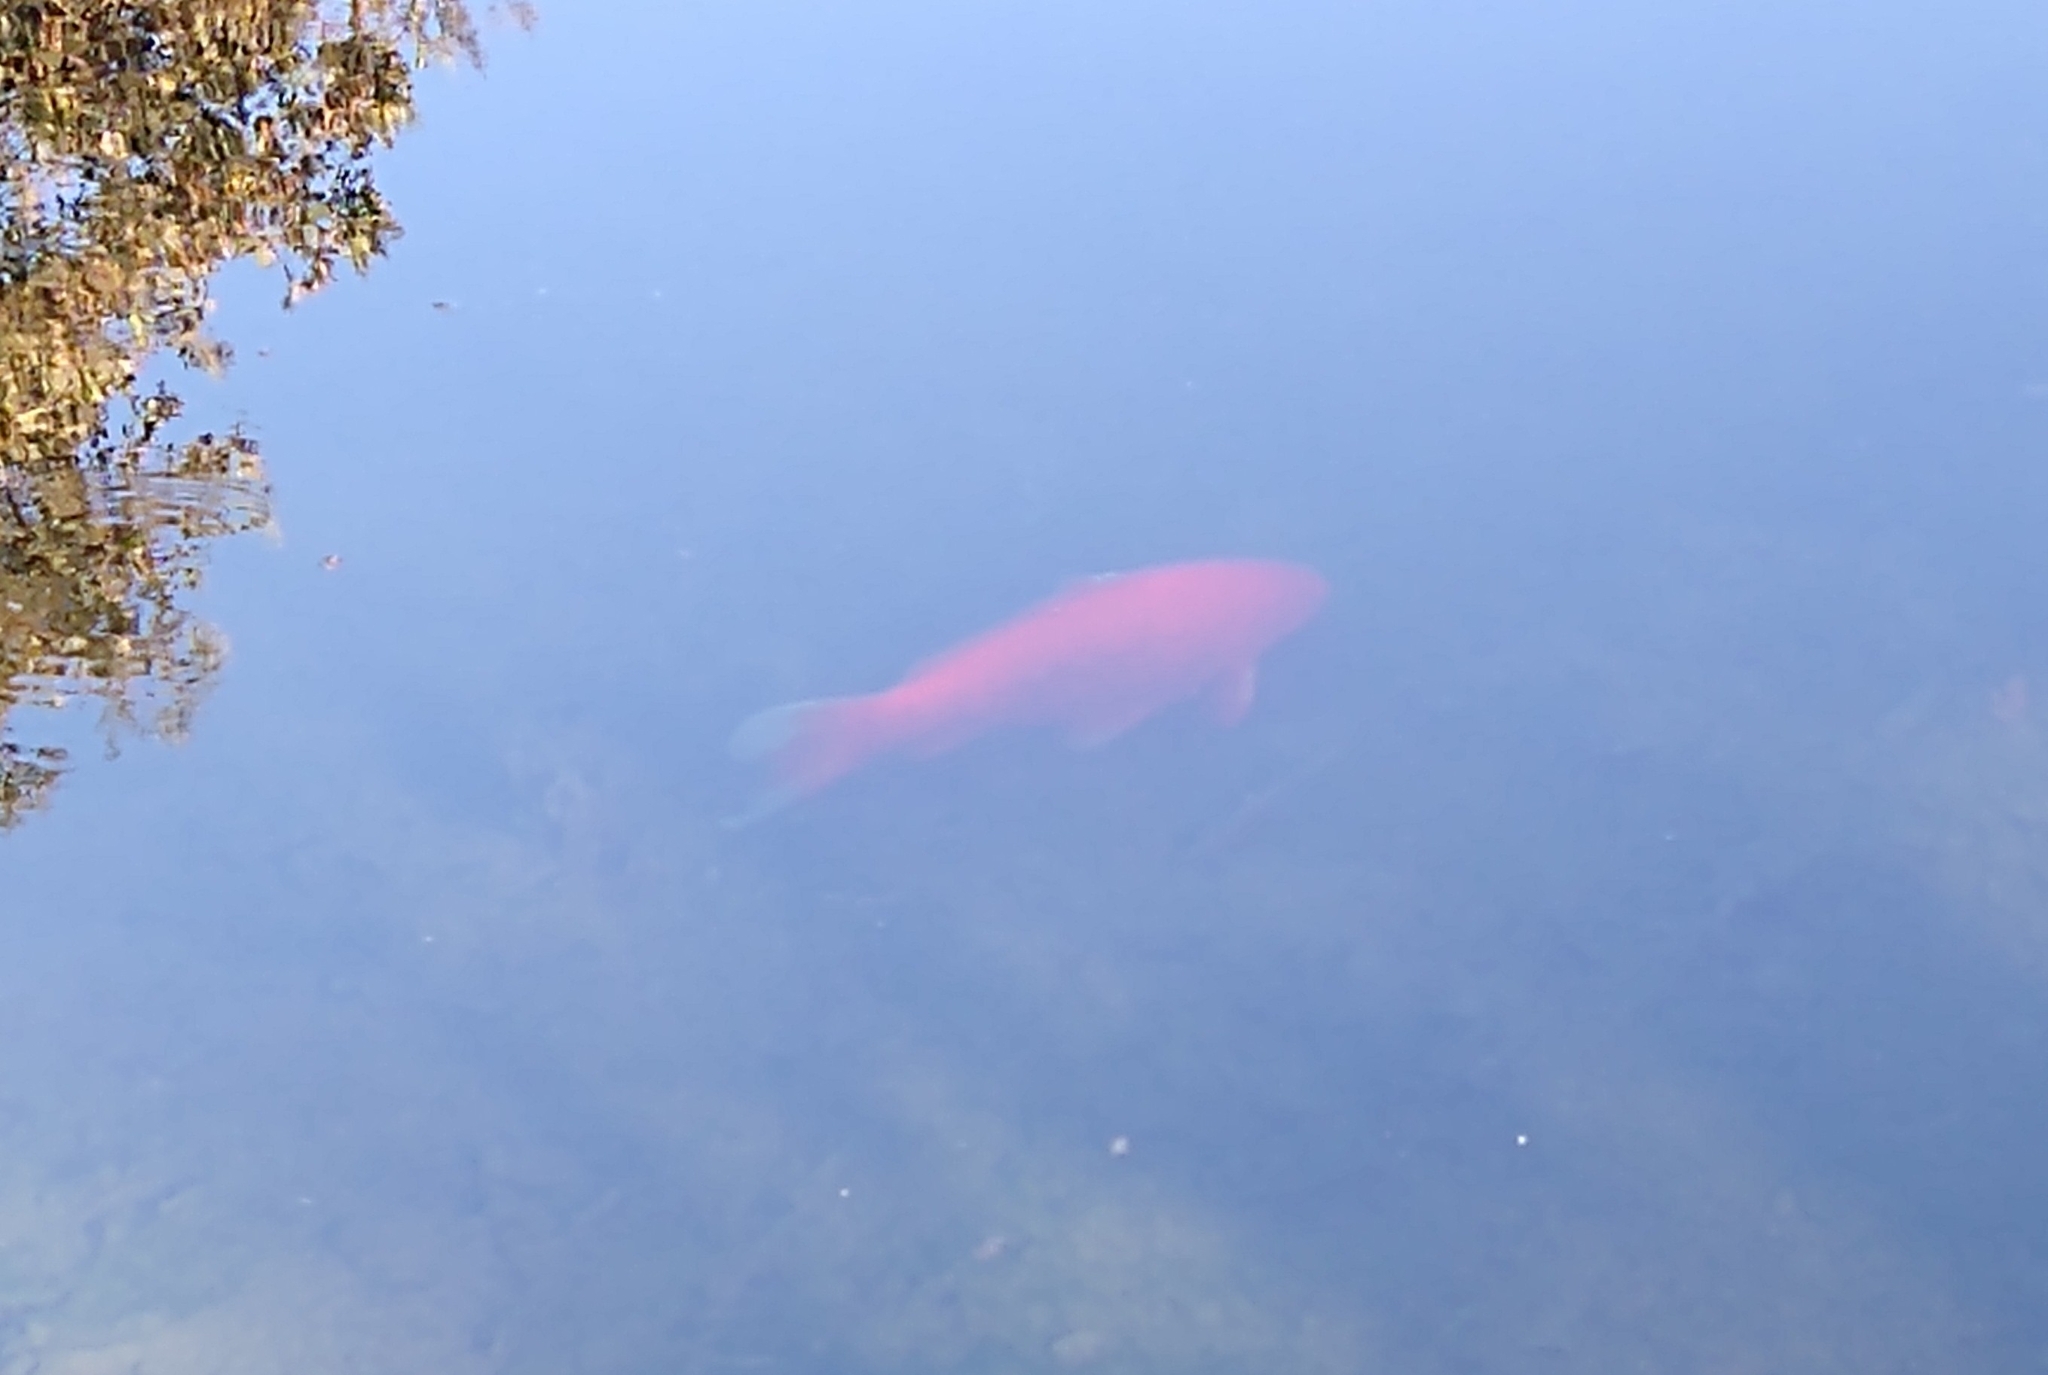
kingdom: Animalia
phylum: Chordata
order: Cypriniformes
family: Cyprinidae
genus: Carassius
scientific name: Carassius auratus
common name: Goldfish
